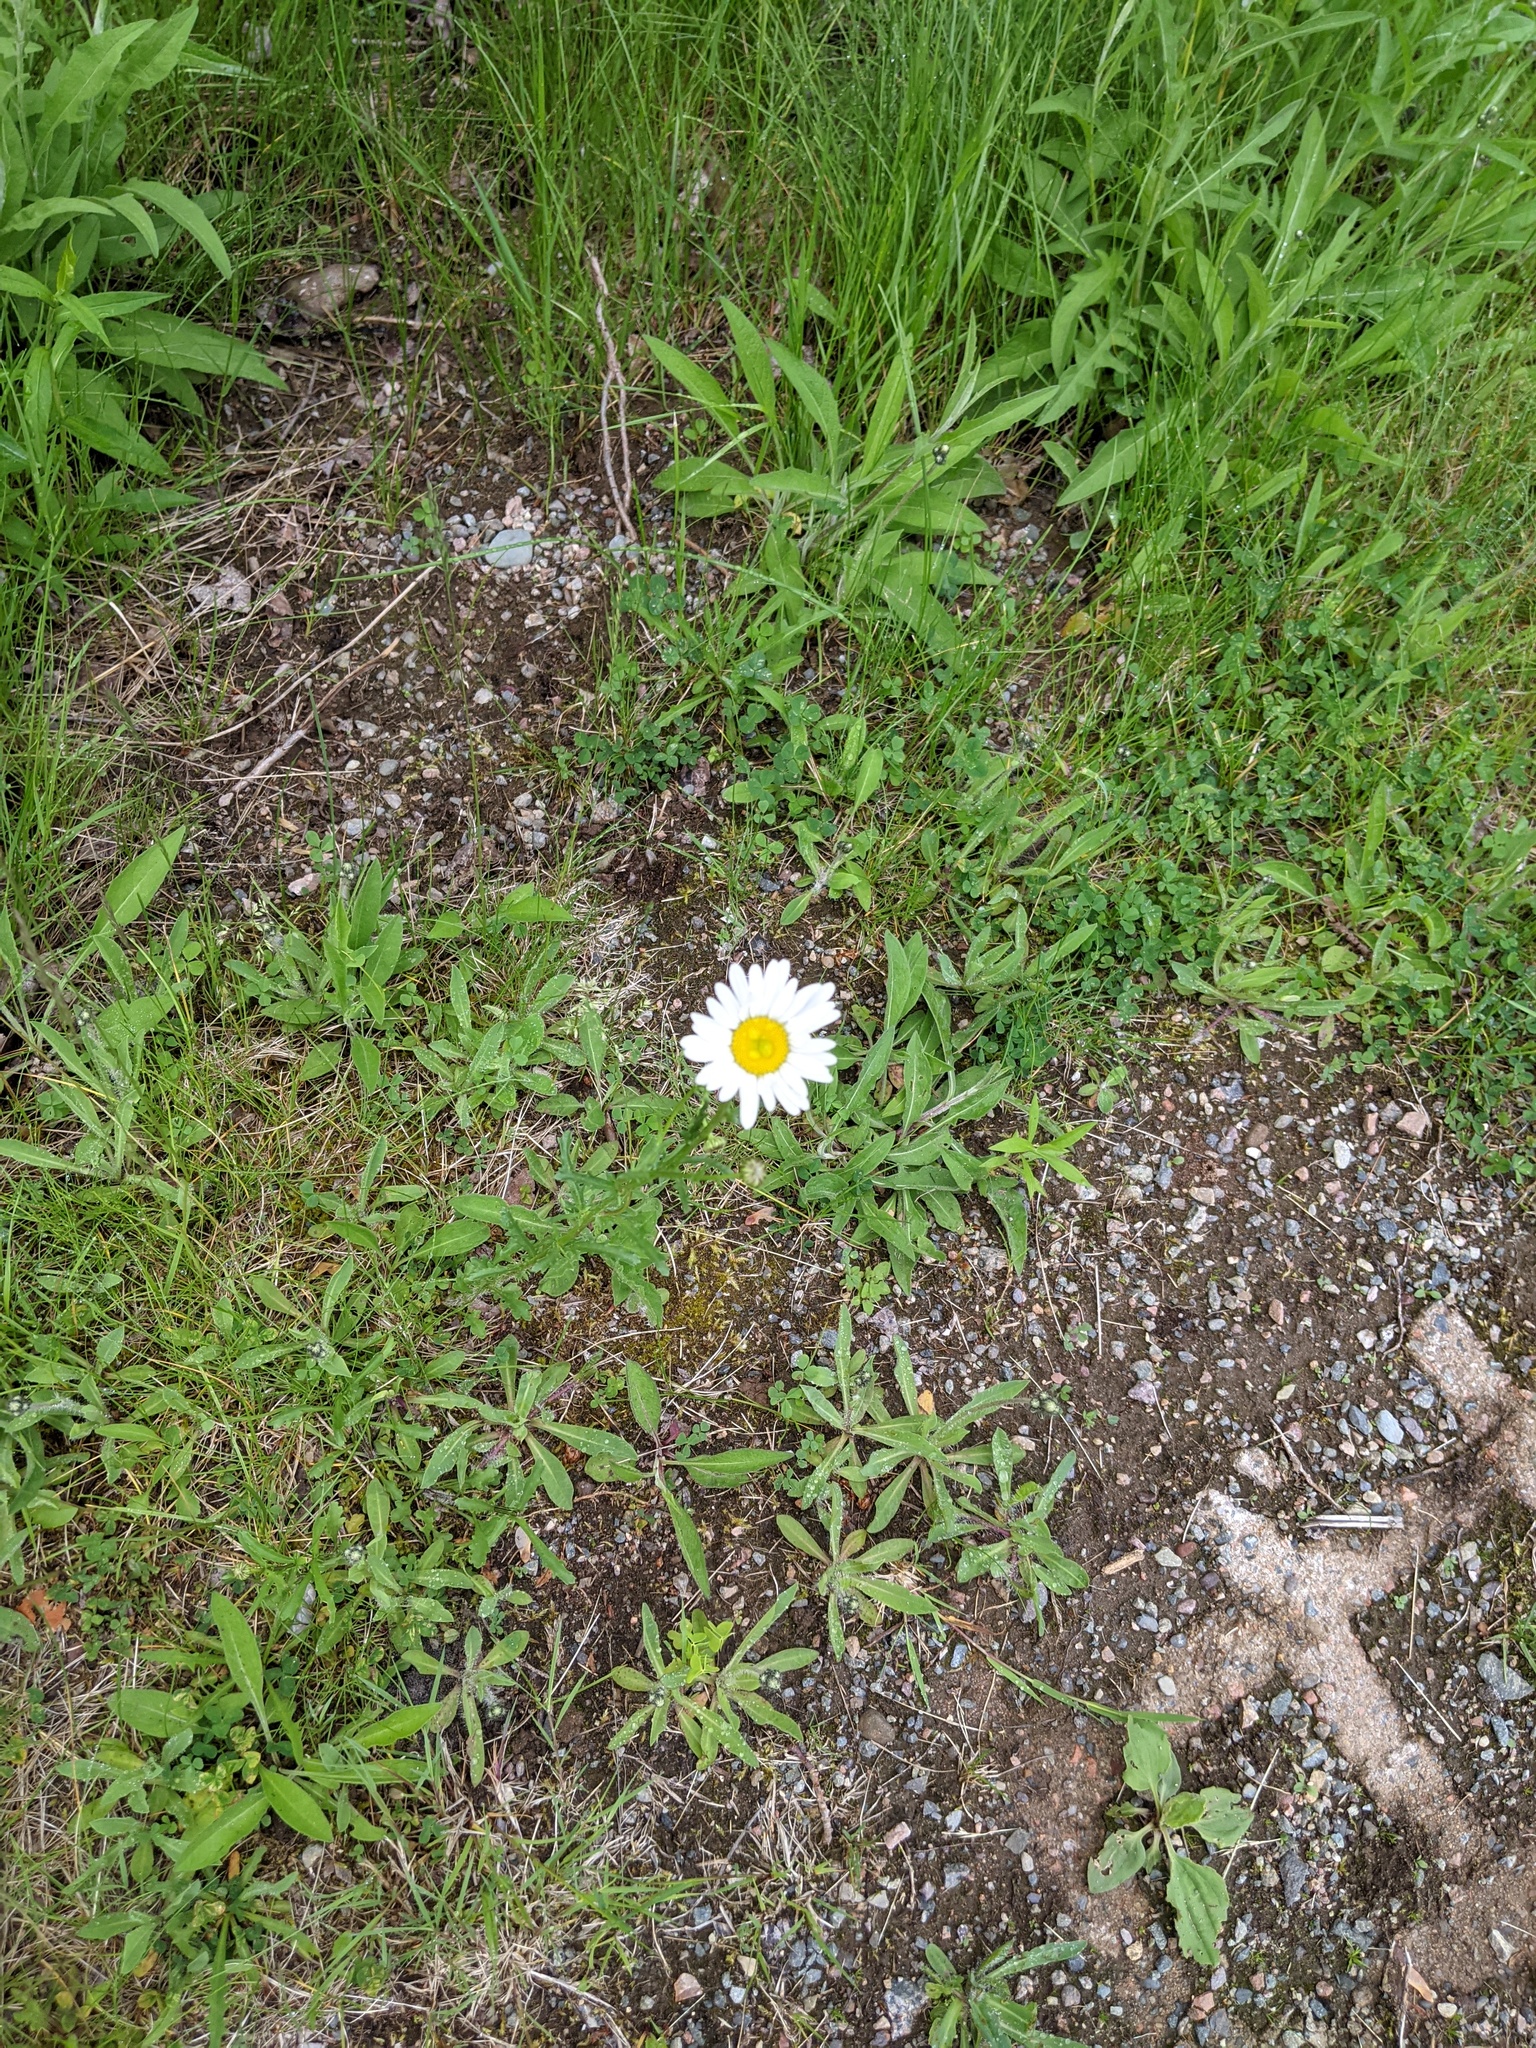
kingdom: Plantae
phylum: Tracheophyta
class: Magnoliopsida
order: Asterales
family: Asteraceae
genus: Leucanthemum
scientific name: Leucanthemum vulgare
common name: Oxeye daisy
